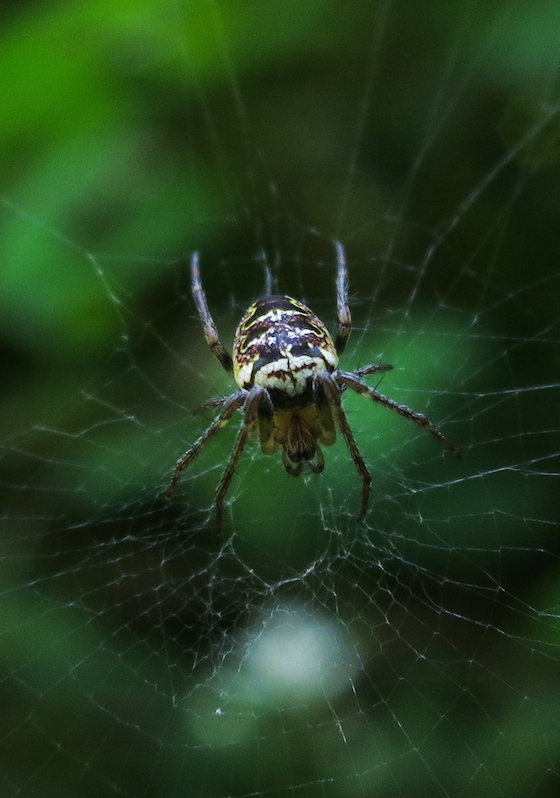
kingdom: Animalia
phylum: Arthropoda
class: Arachnida
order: Araneae
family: Araneidae
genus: Zilla
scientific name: Zilla diodia
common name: Zilla diodia
